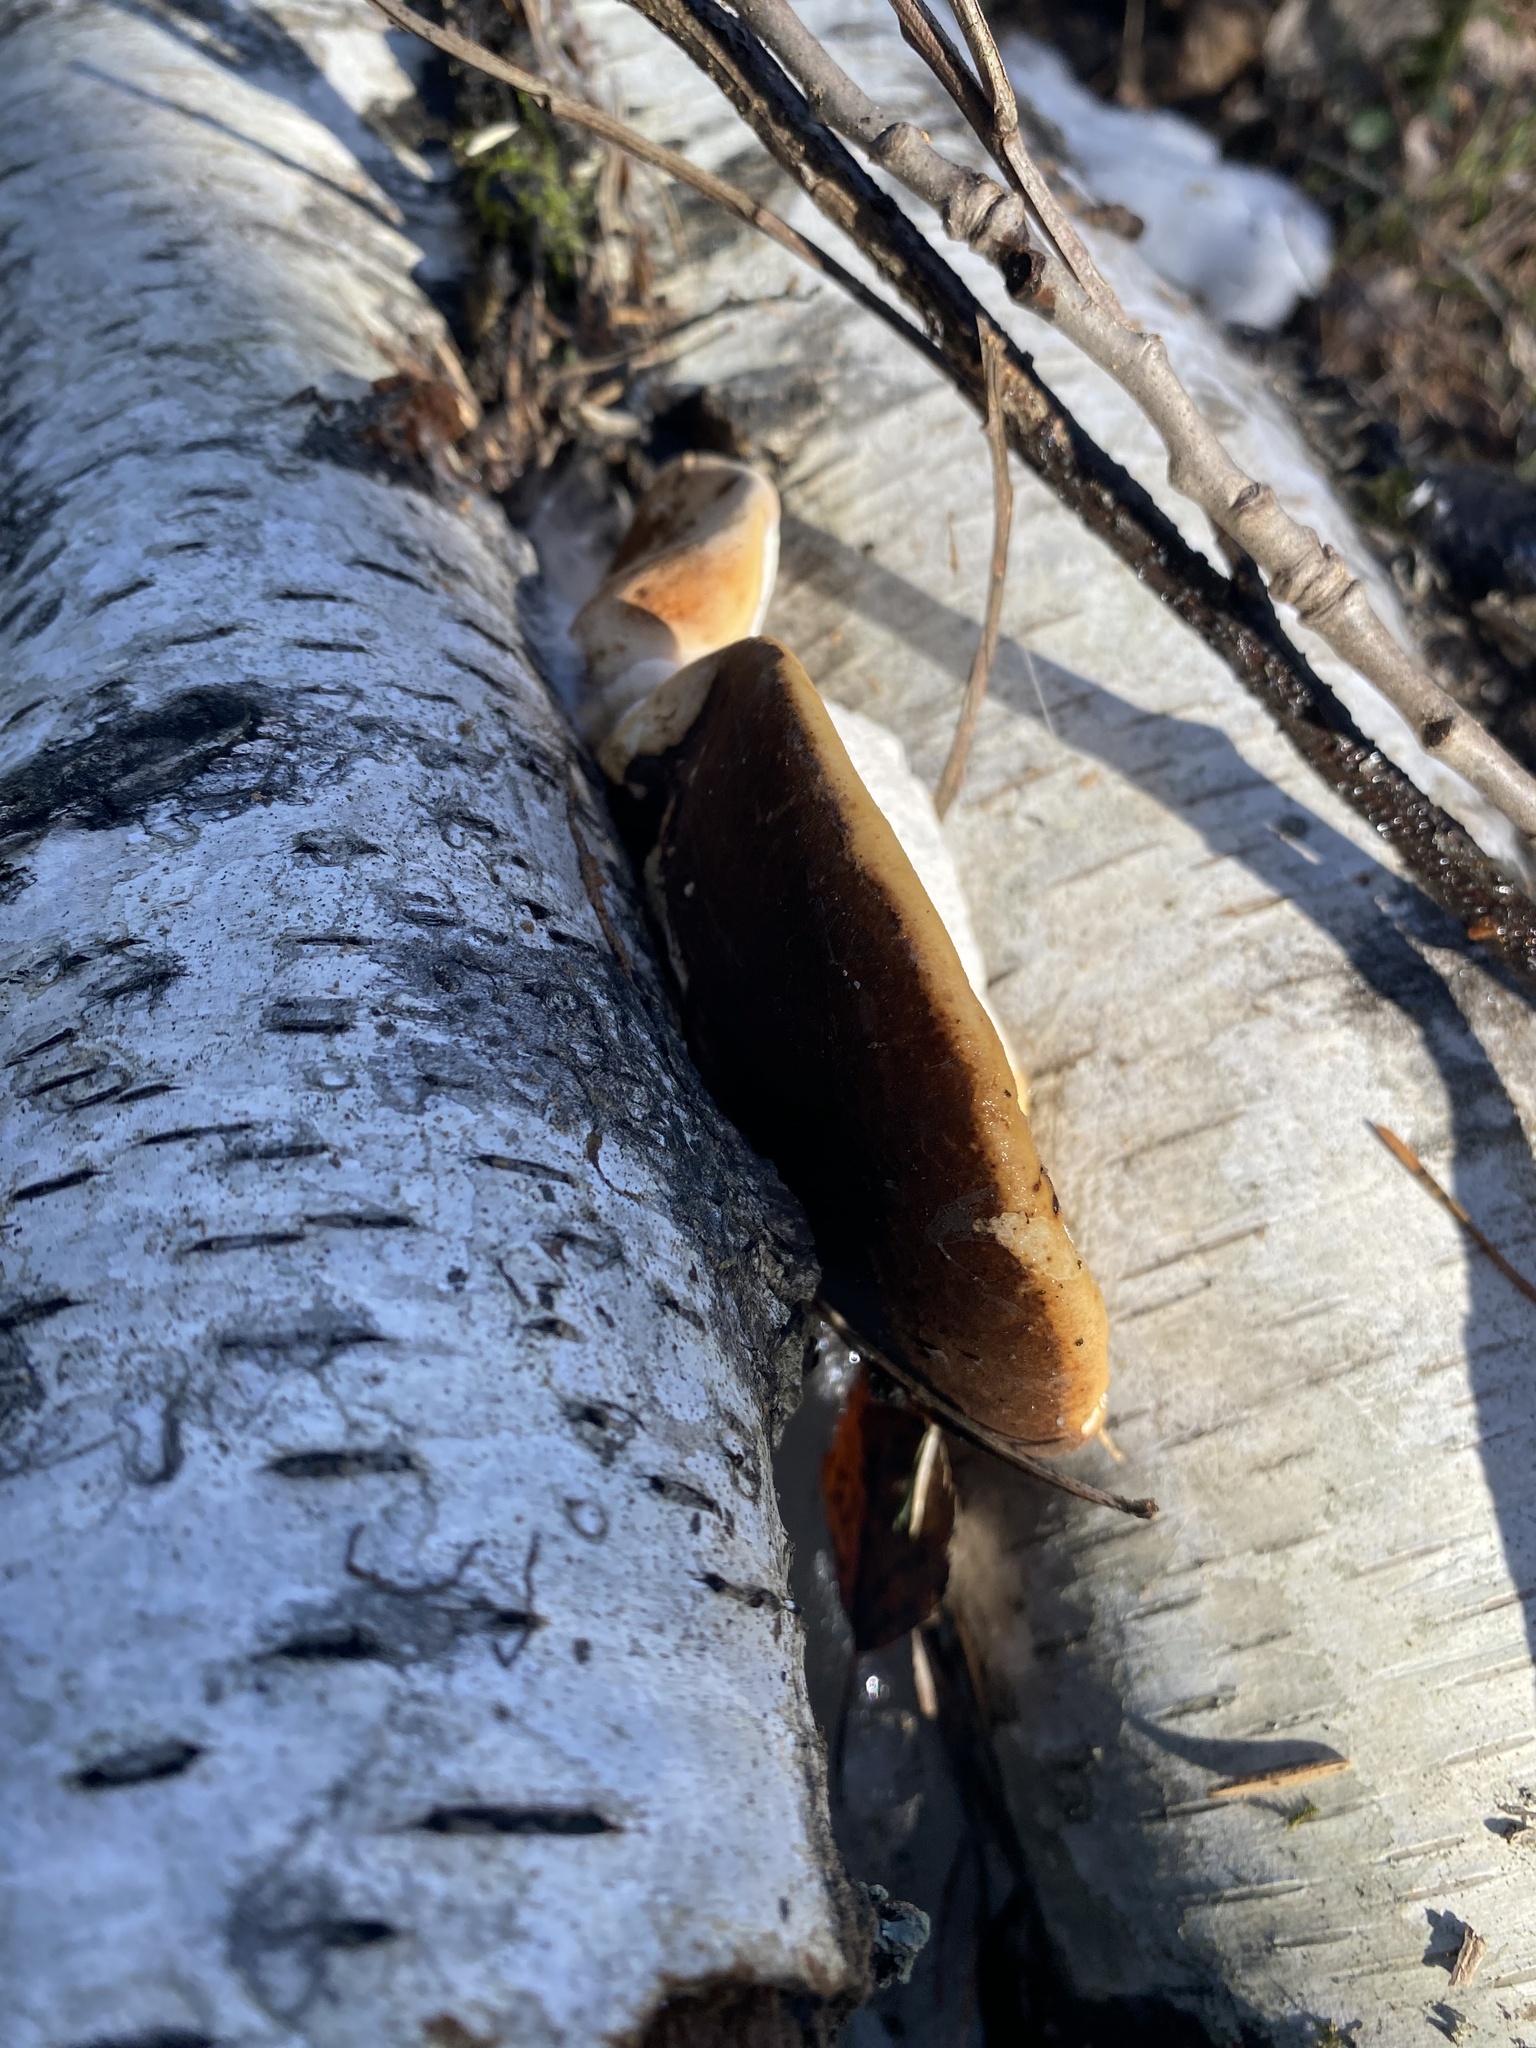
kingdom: Fungi
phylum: Basidiomycota
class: Agaricomycetes
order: Polyporales
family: Fomitopsidaceae
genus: Fomitopsis
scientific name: Fomitopsis betulina
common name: Birch polypore
